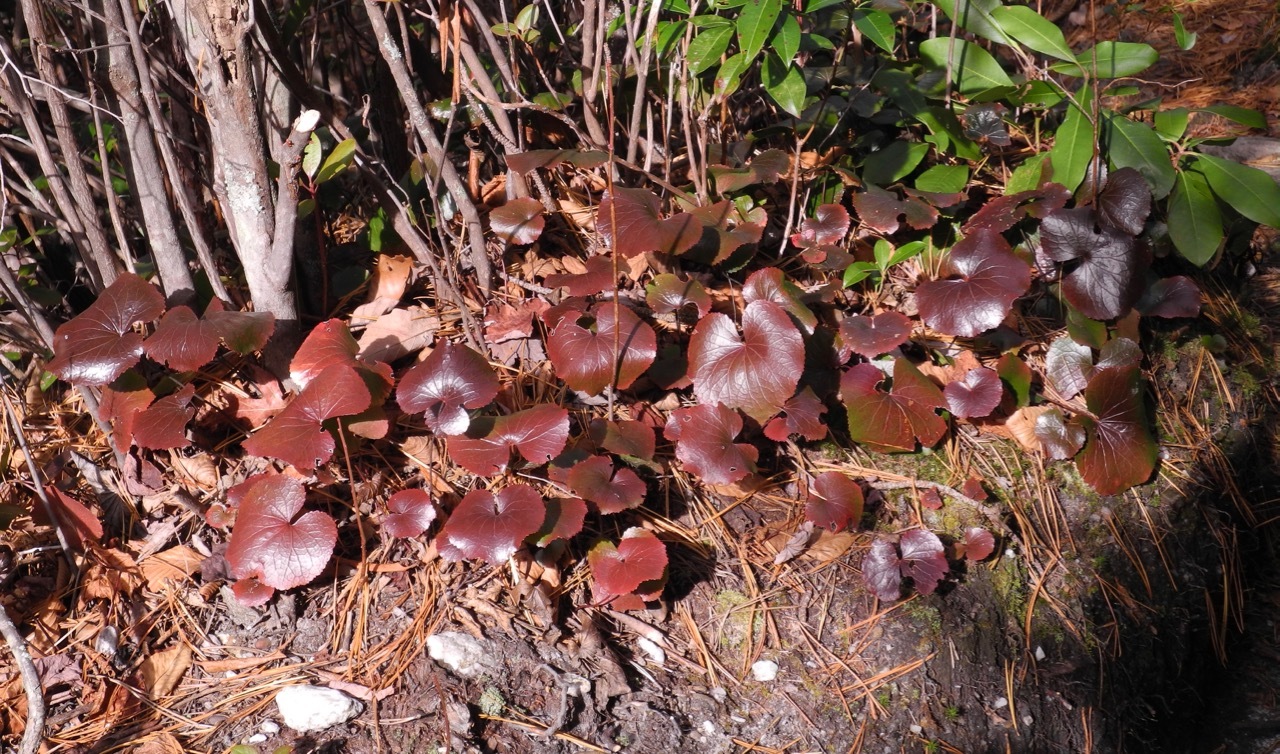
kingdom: Plantae
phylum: Tracheophyta
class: Magnoliopsida
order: Ericales
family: Diapensiaceae
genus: Galax
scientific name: Galax urceolata
